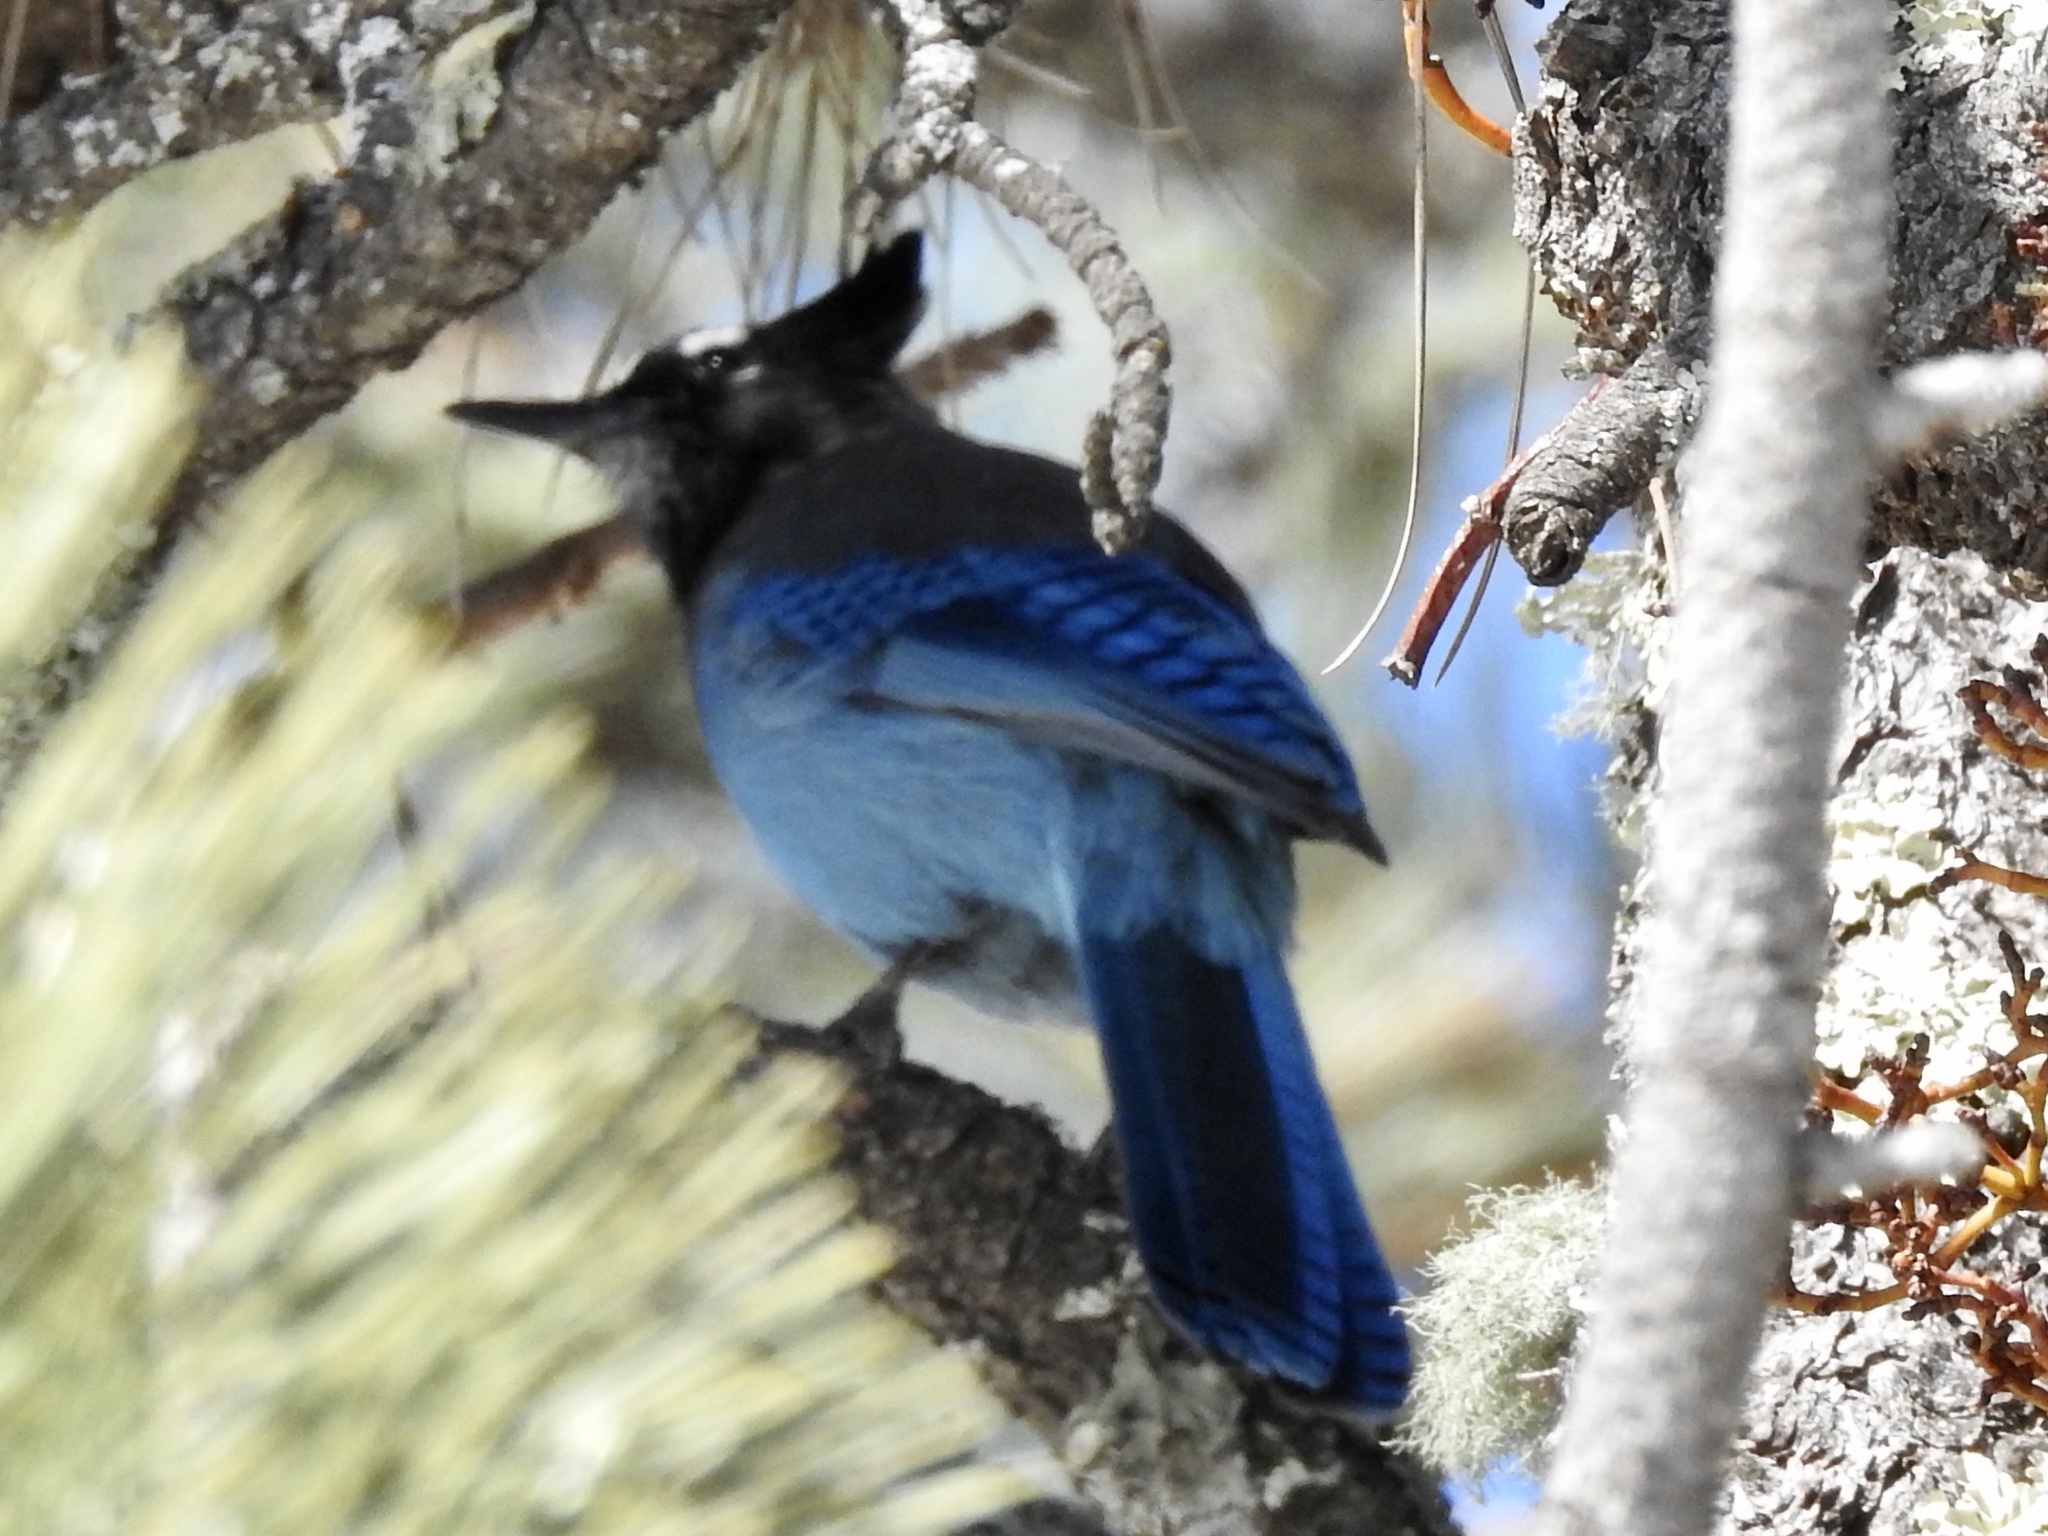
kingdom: Animalia
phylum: Chordata
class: Aves
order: Passeriformes
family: Corvidae
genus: Cyanocitta
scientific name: Cyanocitta stelleri
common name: Steller's jay
